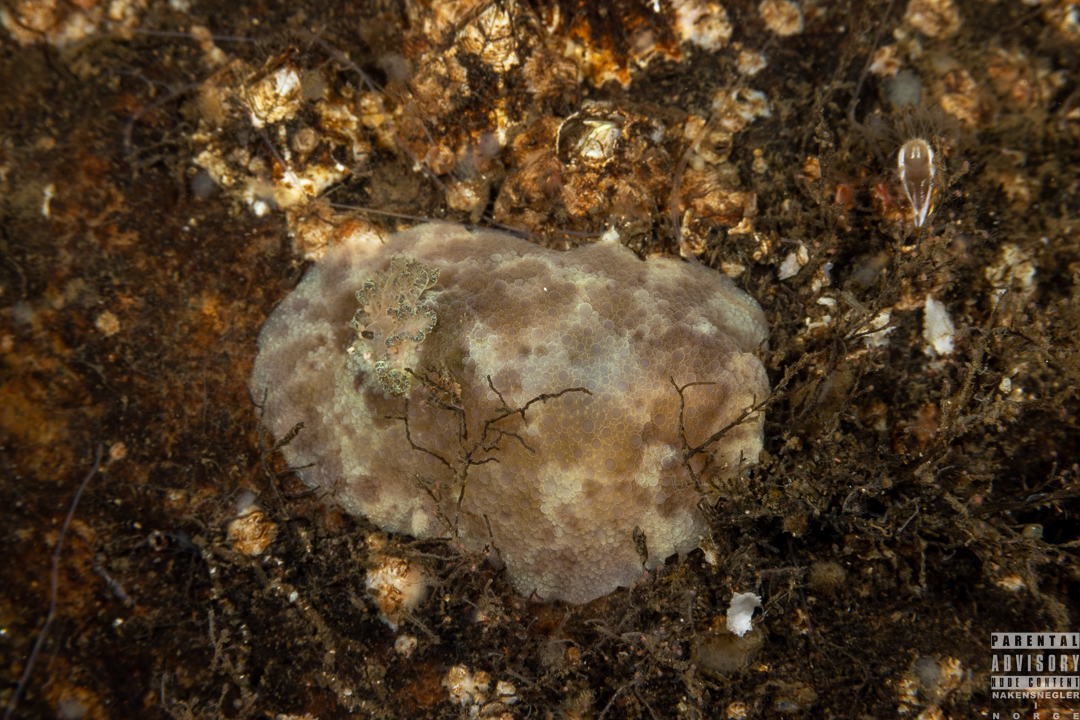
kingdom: Animalia
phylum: Mollusca
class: Gastropoda
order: Nudibranchia
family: Dorididae
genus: Doris
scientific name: Doris pseudoargus
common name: Sea lemon
